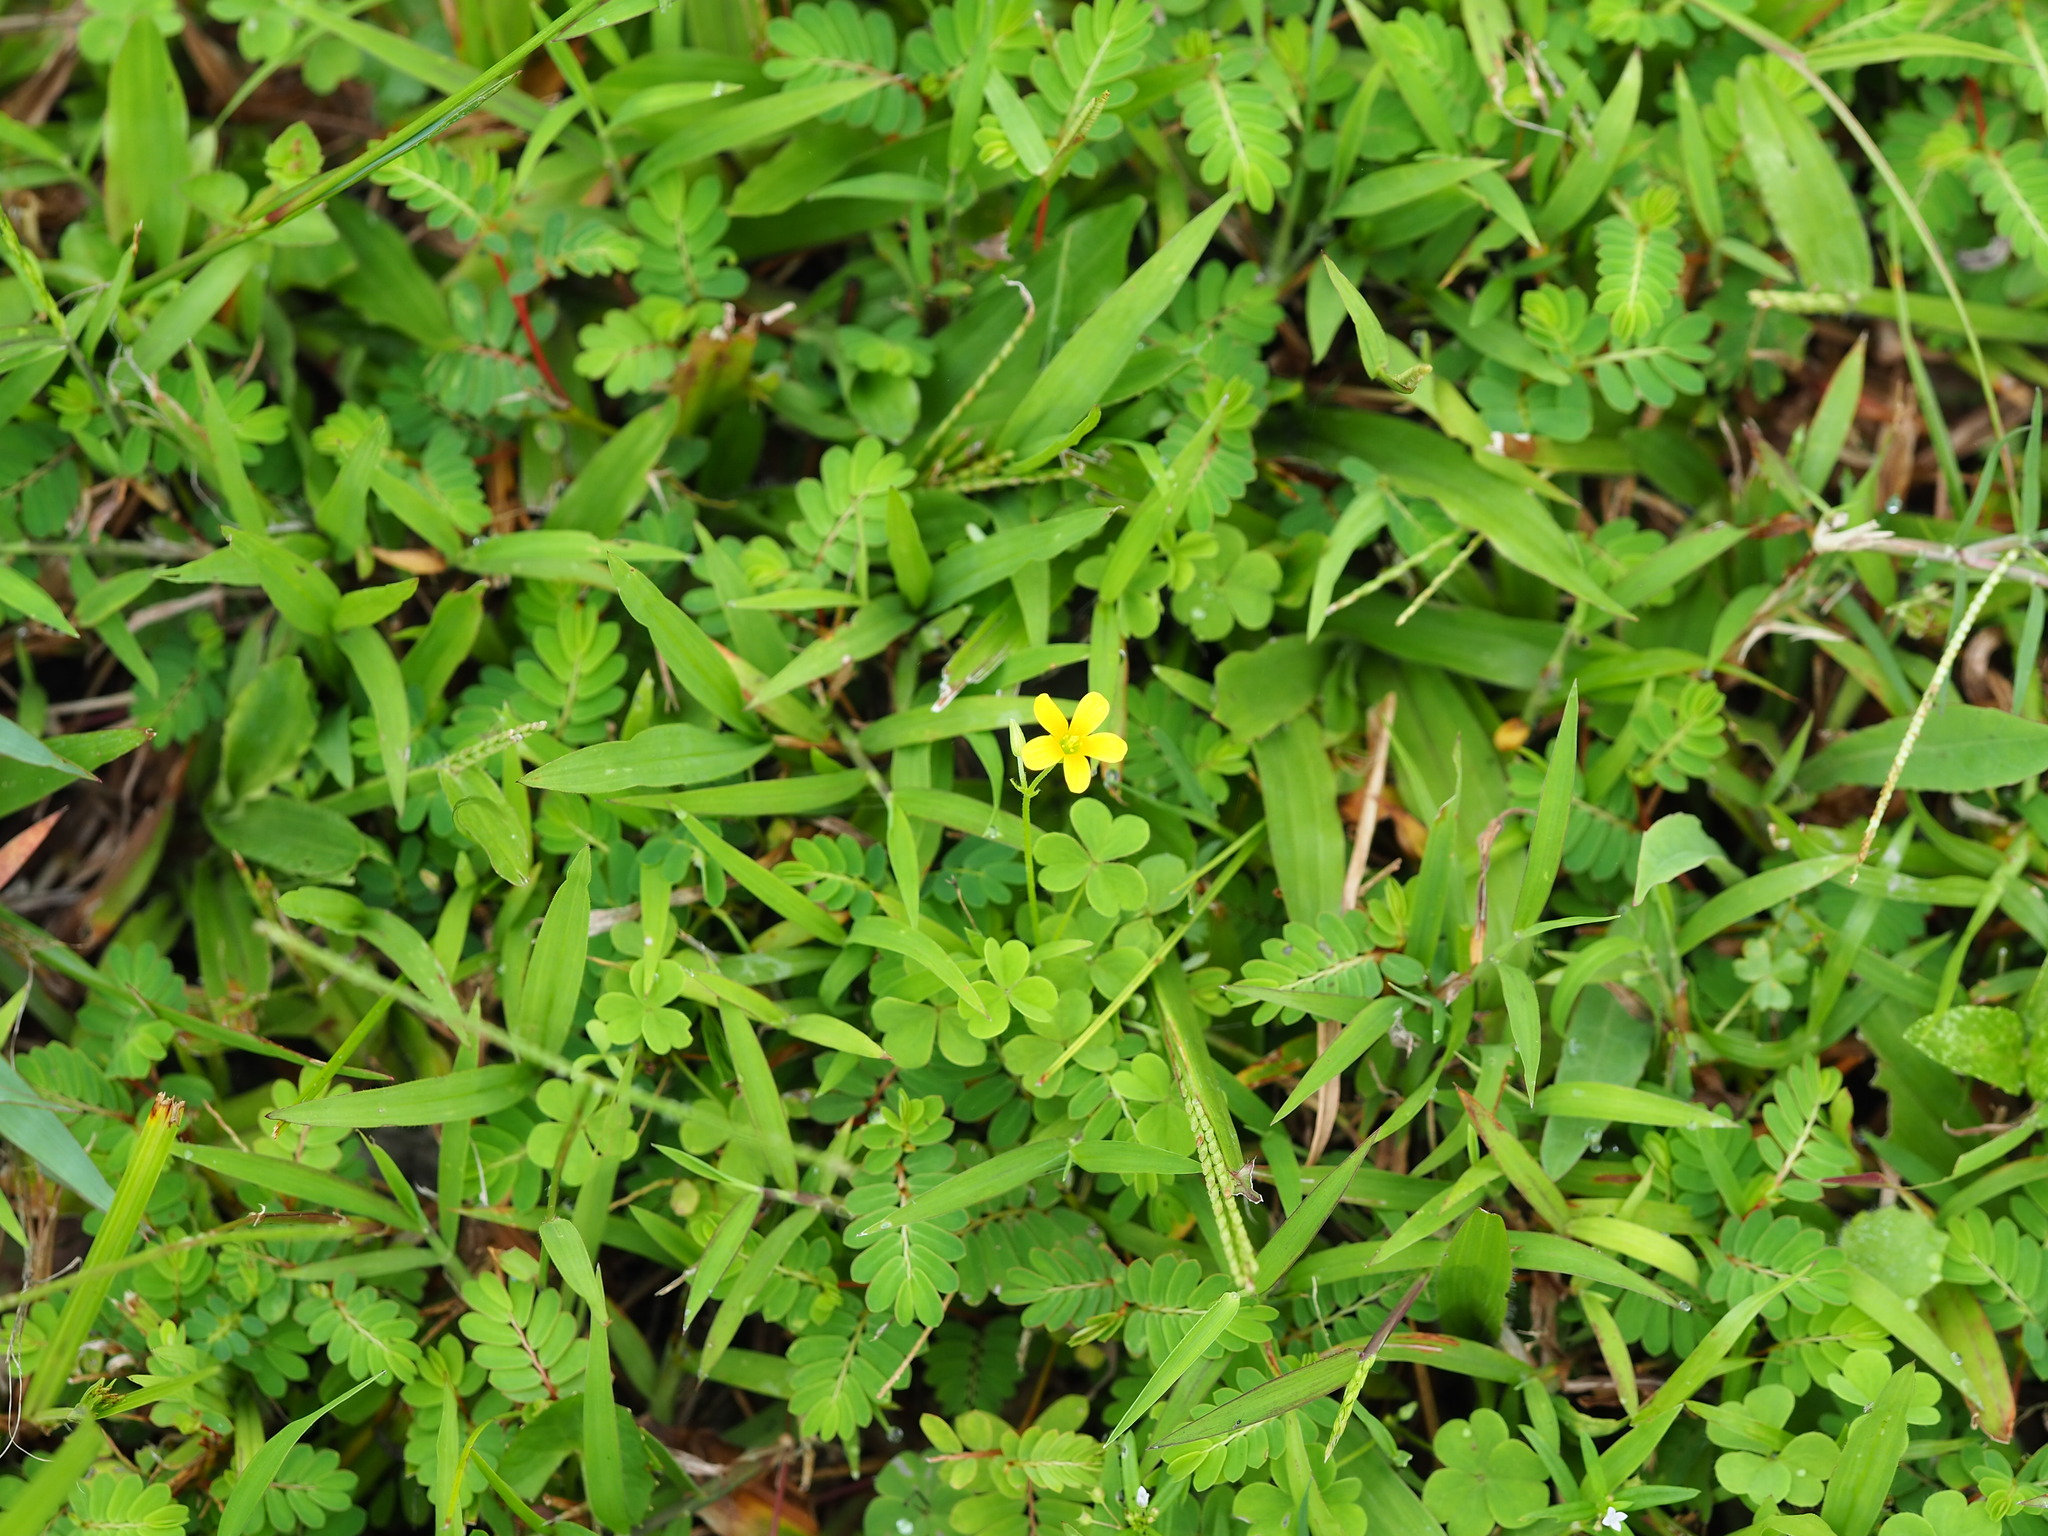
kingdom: Plantae
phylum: Tracheophyta
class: Magnoliopsida
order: Oxalidales
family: Oxalidaceae
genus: Oxalis
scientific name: Oxalis corniculata
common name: Procumbent yellow-sorrel
